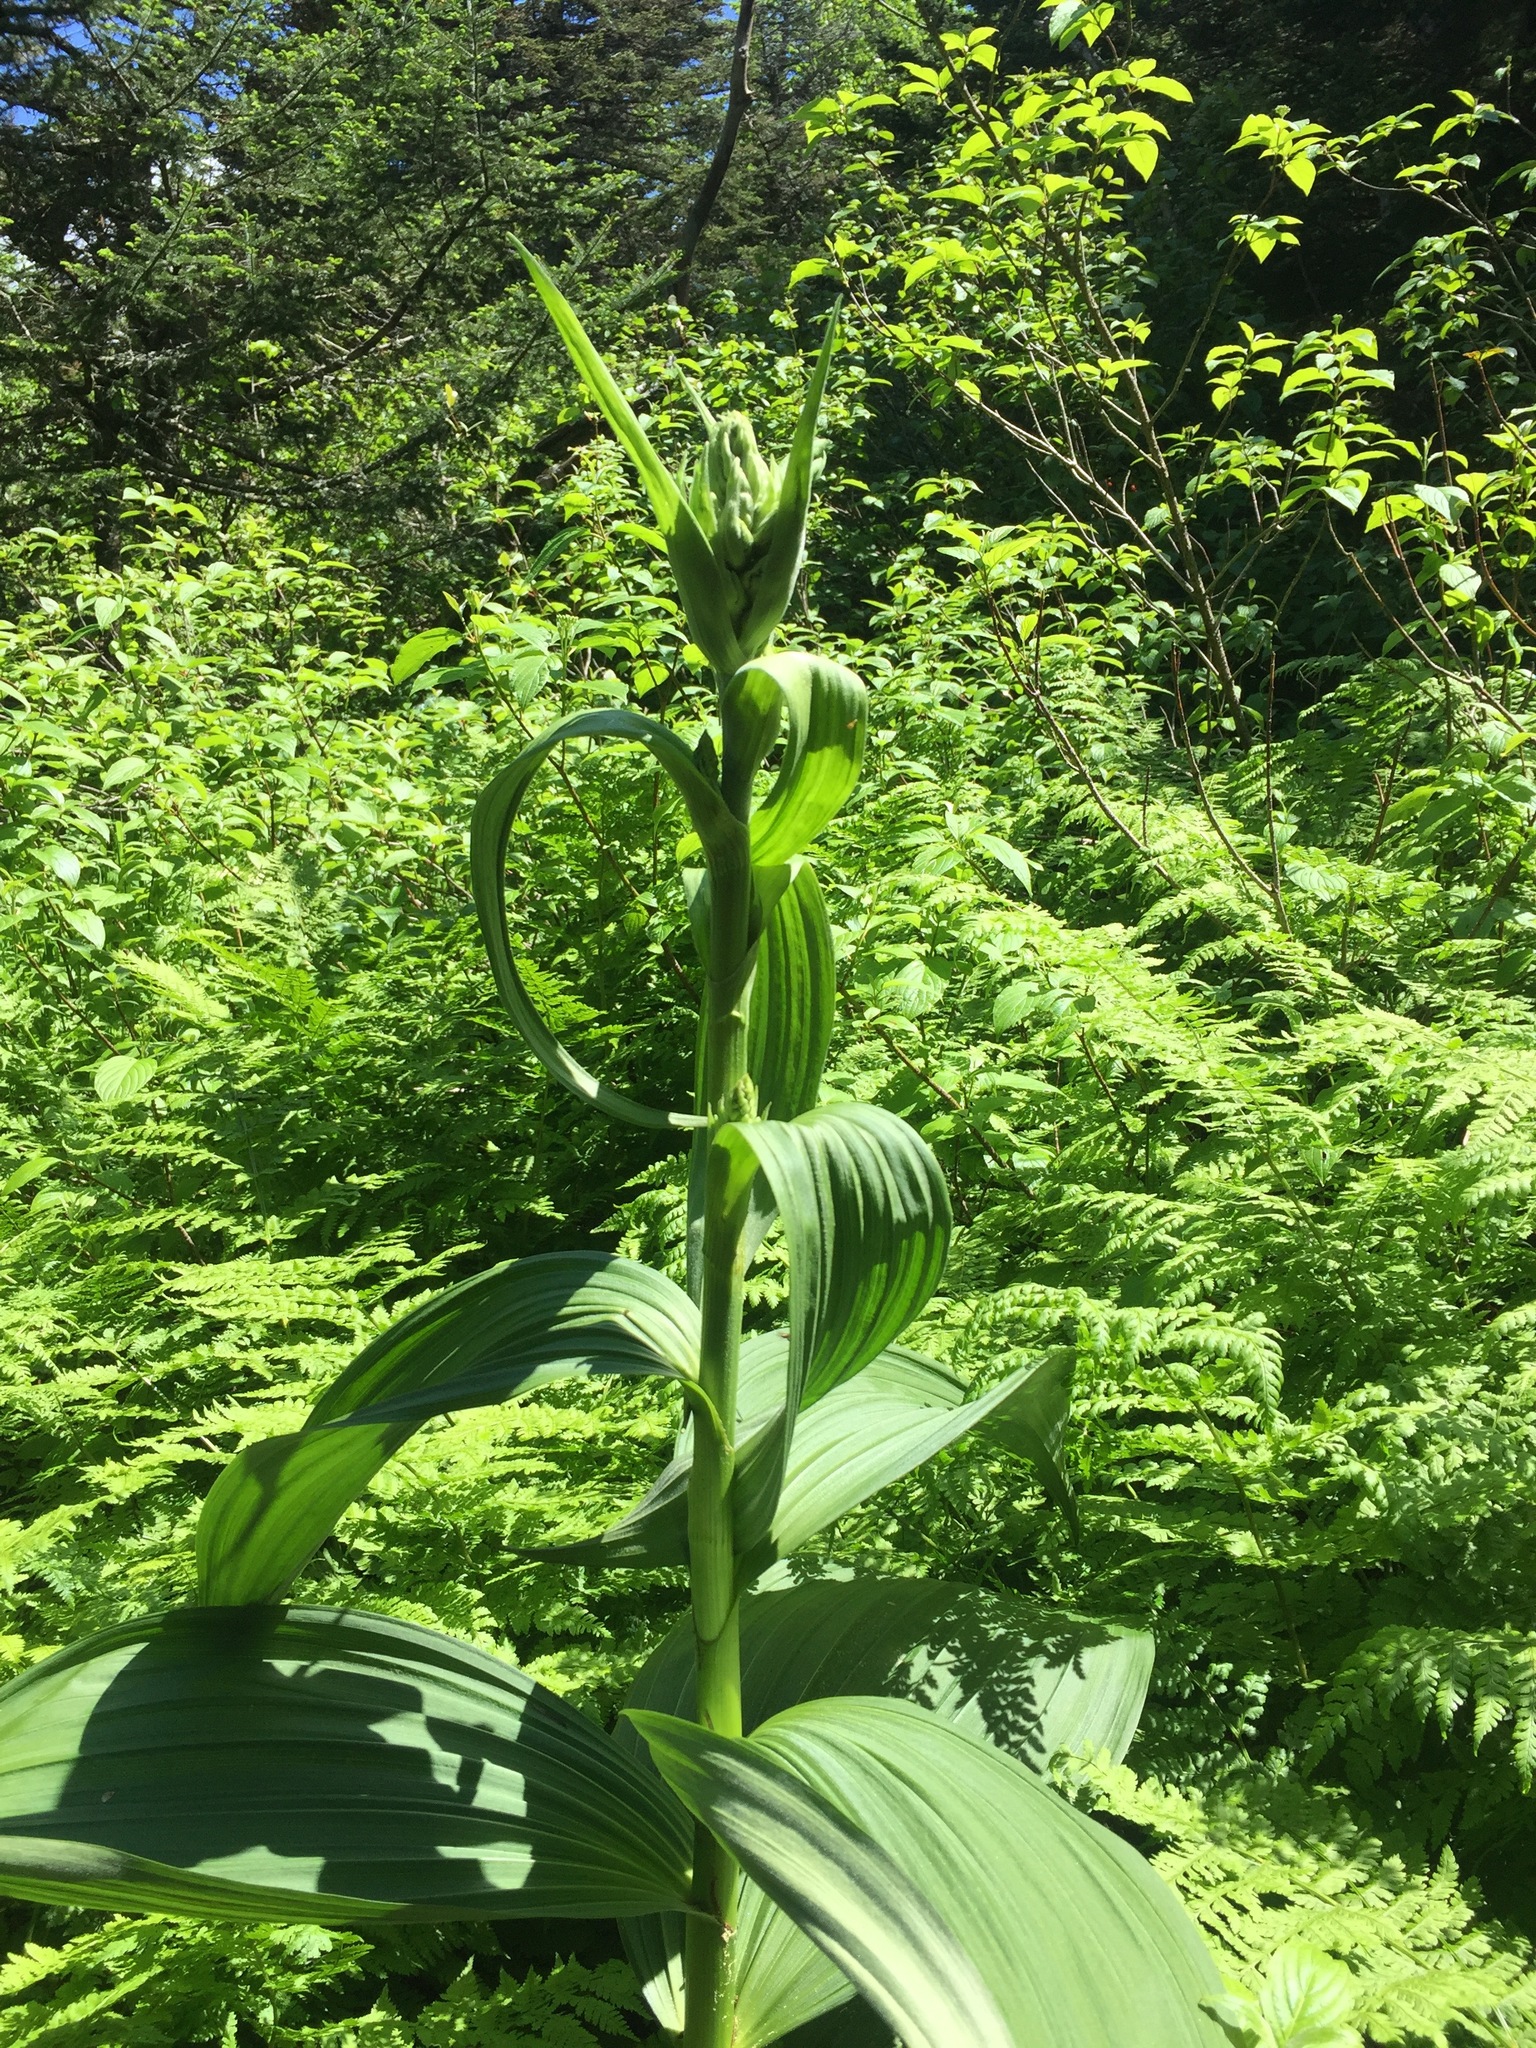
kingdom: Plantae
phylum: Tracheophyta
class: Liliopsida
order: Liliales
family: Melanthiaceae
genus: Veratrum
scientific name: Veratrum viride
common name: American false hellebore
